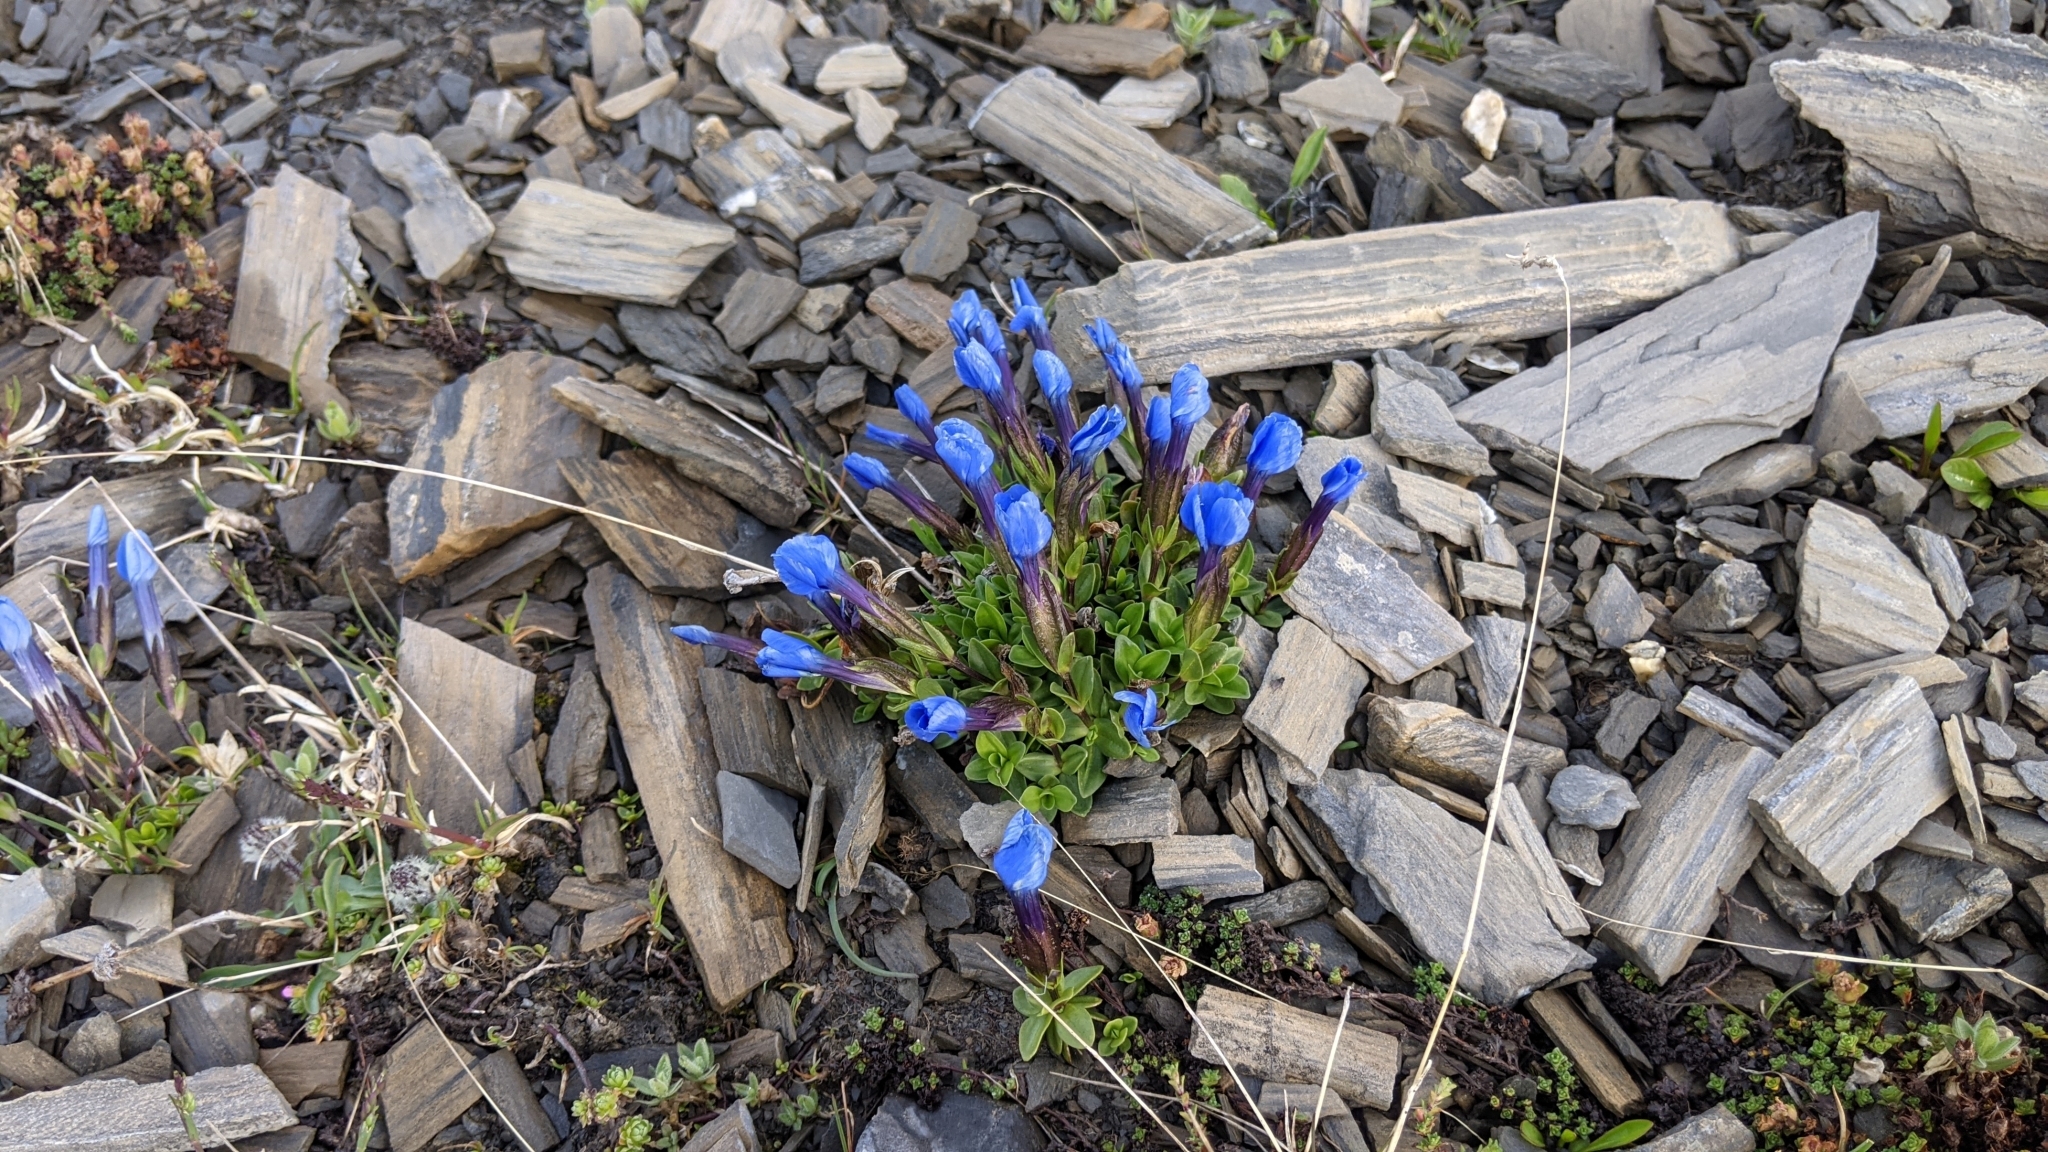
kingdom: Plantae
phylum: Tracheophyta
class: Magnoliopsida
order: Gentianales
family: Gentianaceae
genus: Gentiana
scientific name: Gentiana orbicularis
